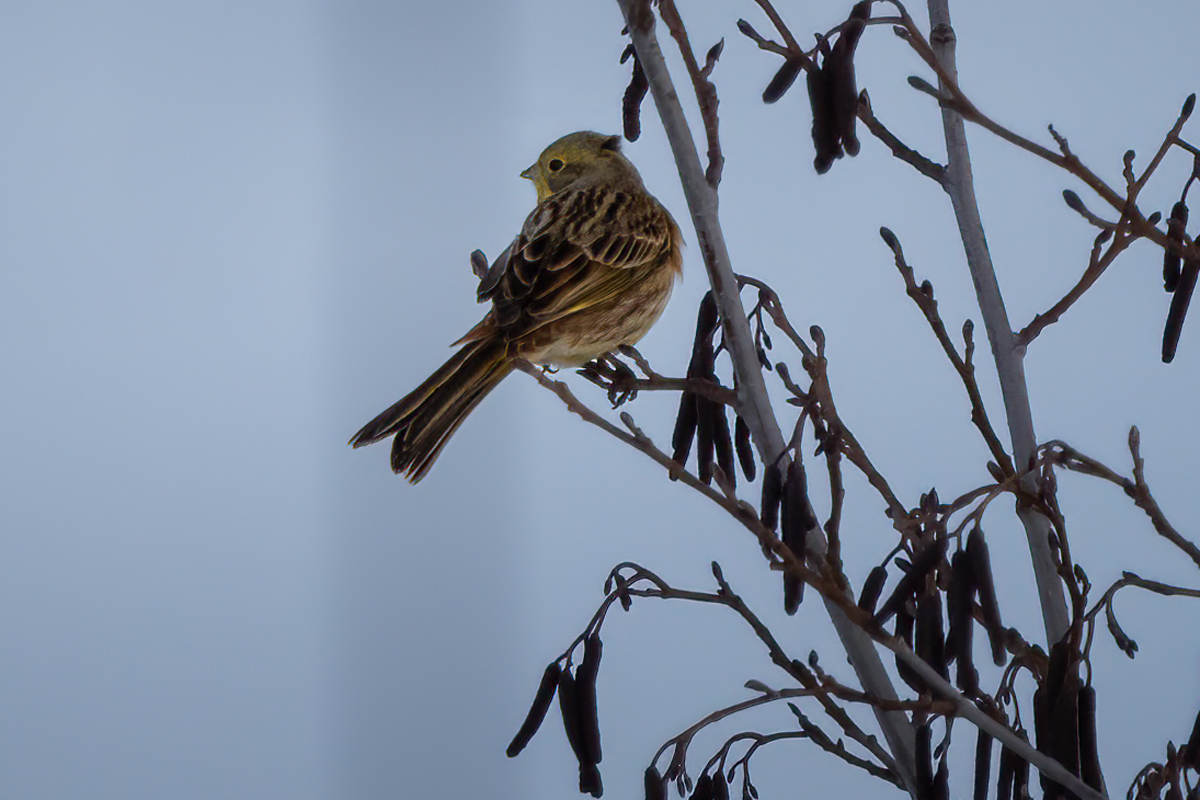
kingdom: Animalia
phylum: Chordata
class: Aves
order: Passeriformes
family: Emberizidae
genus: Emberiza
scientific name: Emberiza citrinella
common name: Yellowhammer
